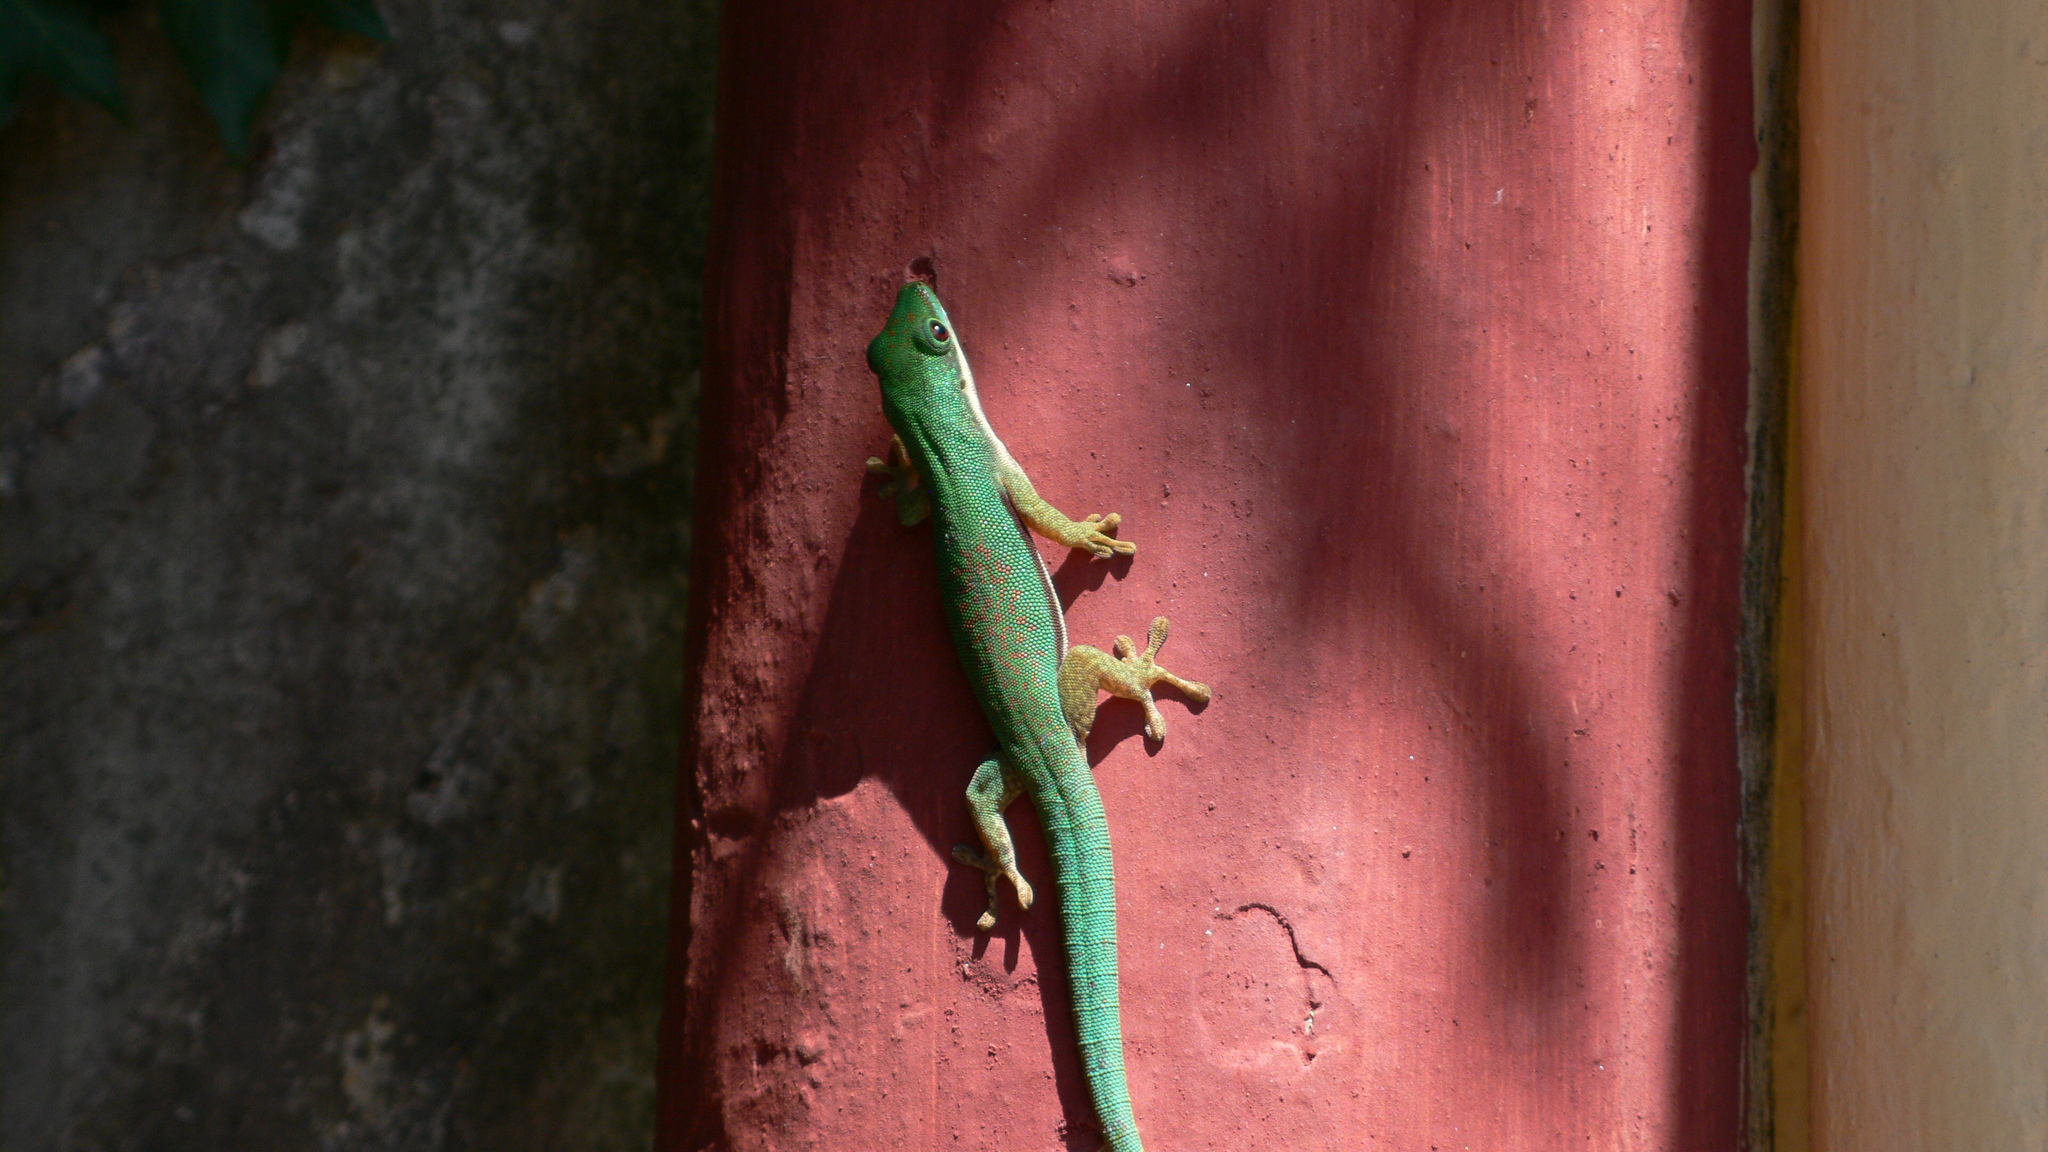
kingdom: Animalia
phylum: Chordata
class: Squamata
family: Gekkonidae
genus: Phelsuma
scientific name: Phelsuma lineata
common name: Lined day gecko
